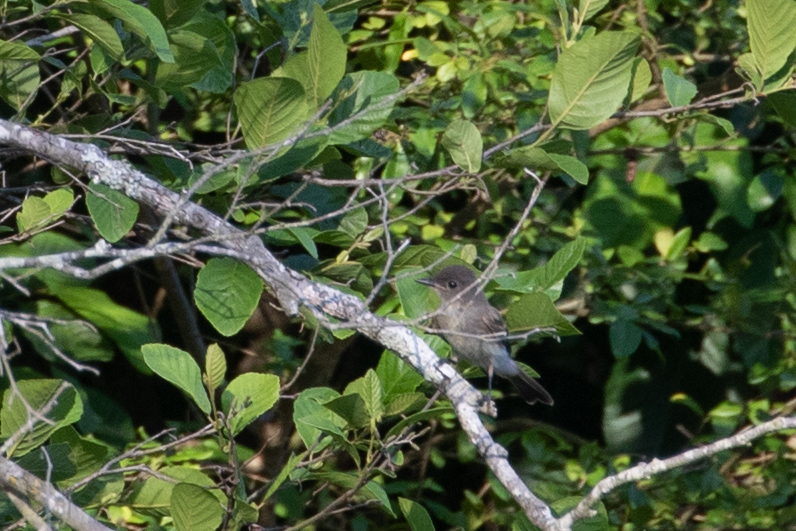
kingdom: Animalia
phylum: Chordata
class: Aves
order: Passeriformes
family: Tyrannidae
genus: Sayornis
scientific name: Sayornis phoebe
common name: Eastern phoebe
